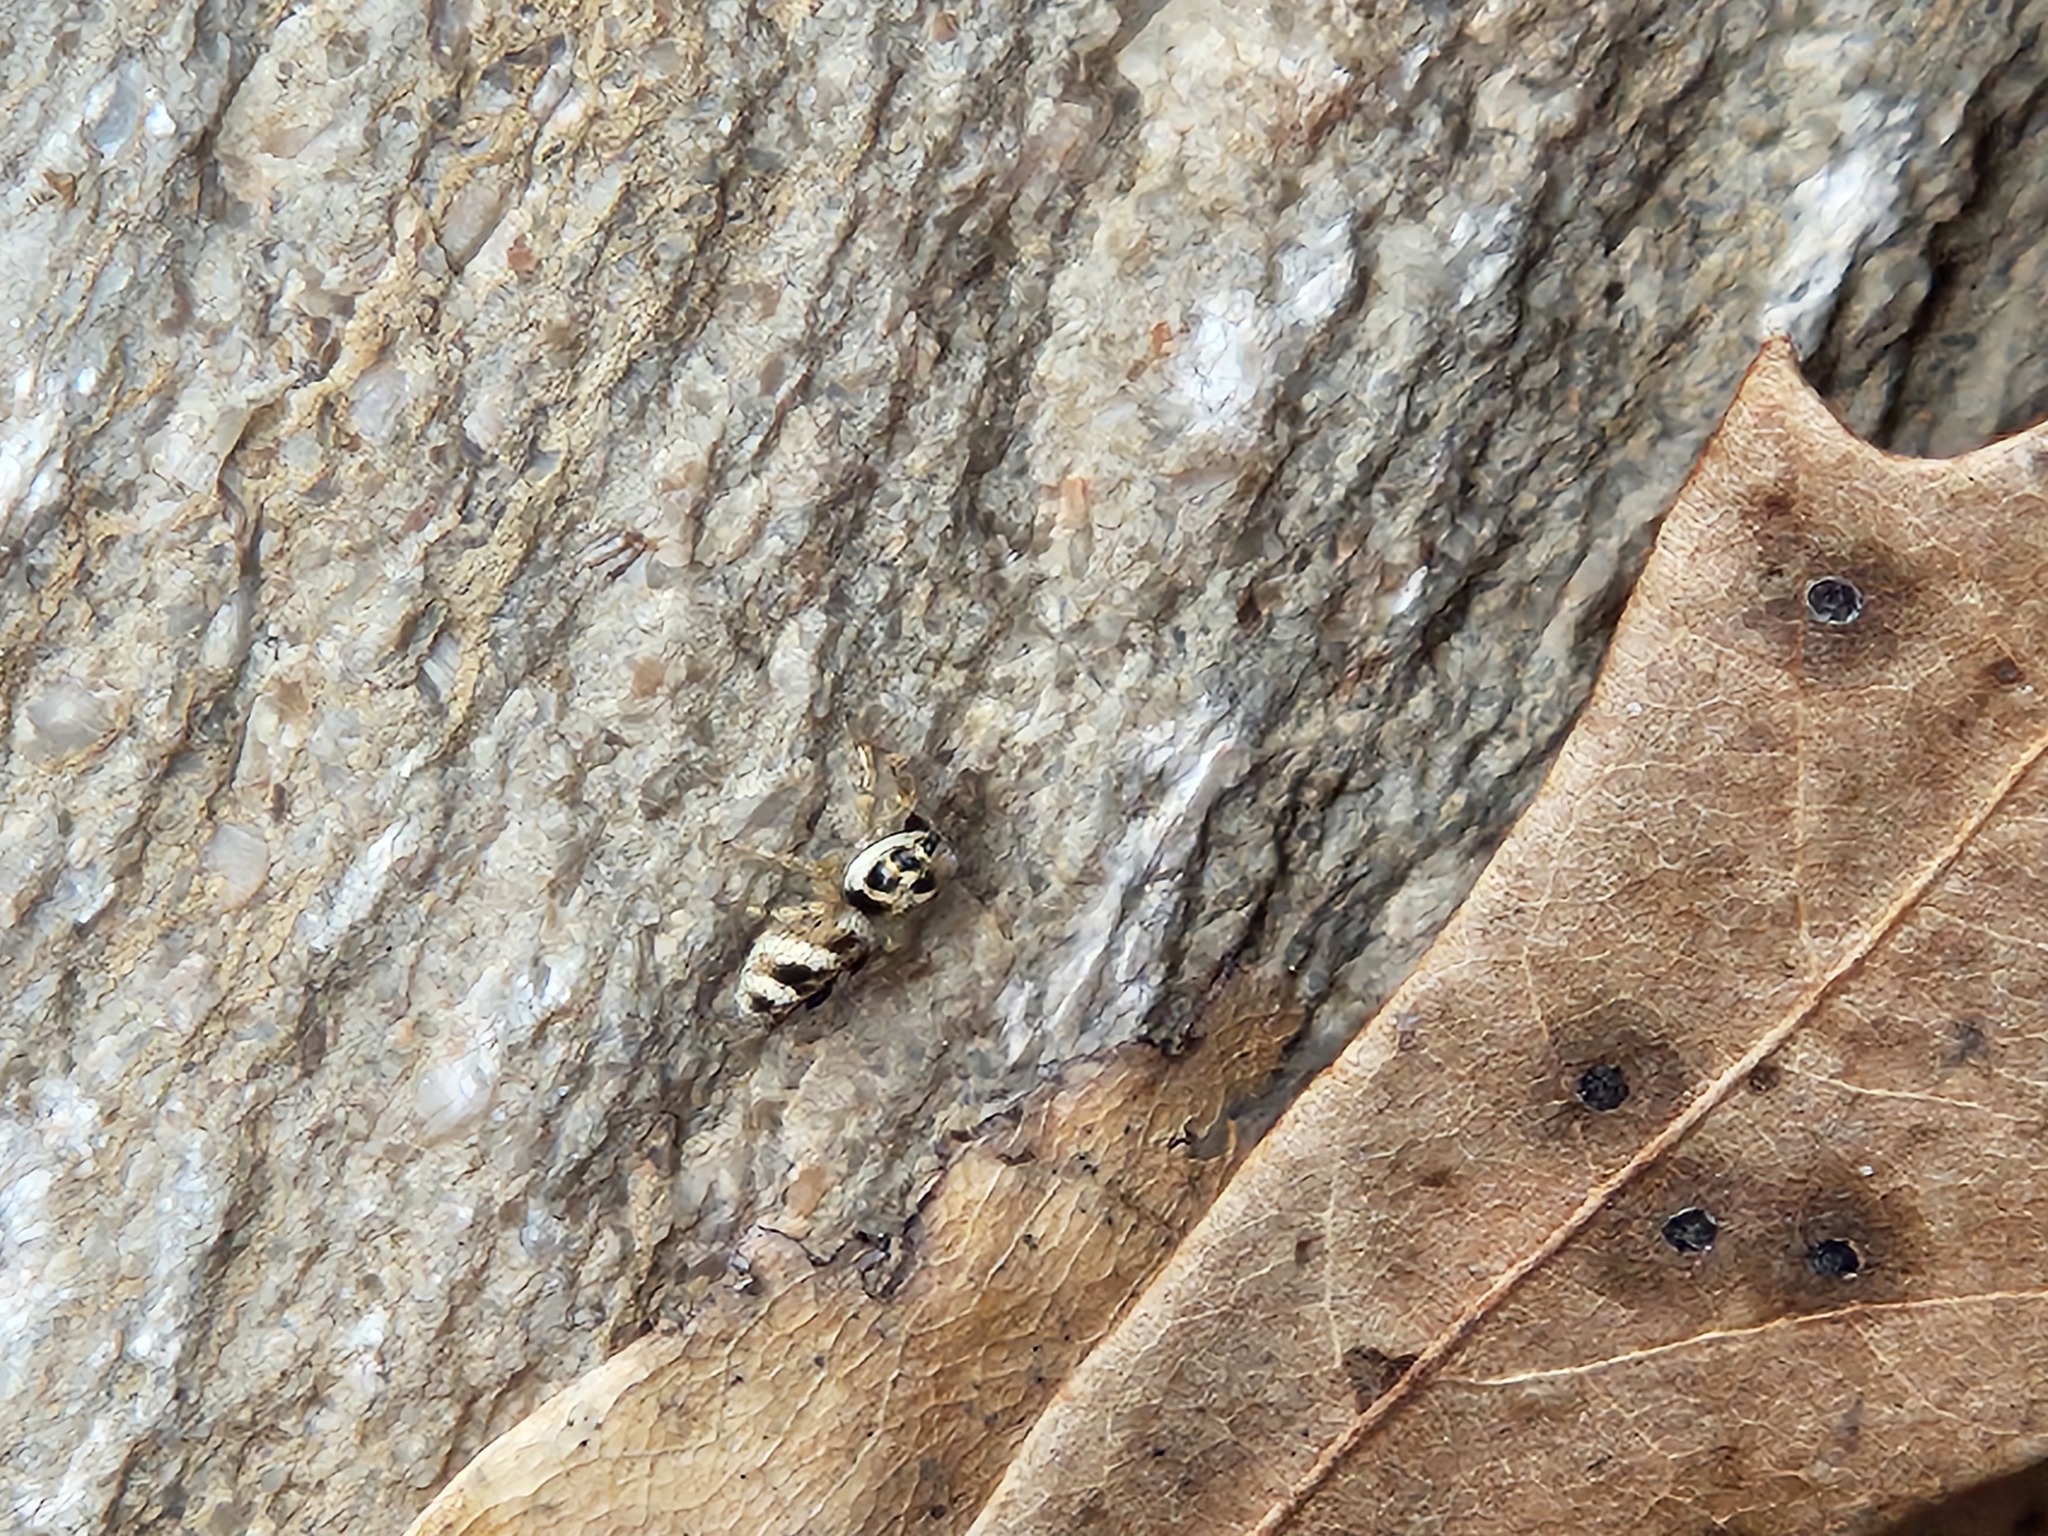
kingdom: Animalia
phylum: Arthropoda
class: Arachnida
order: Araneae
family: Salticidae
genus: Salticus
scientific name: Salticus scenicus
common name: Zebra jumper
